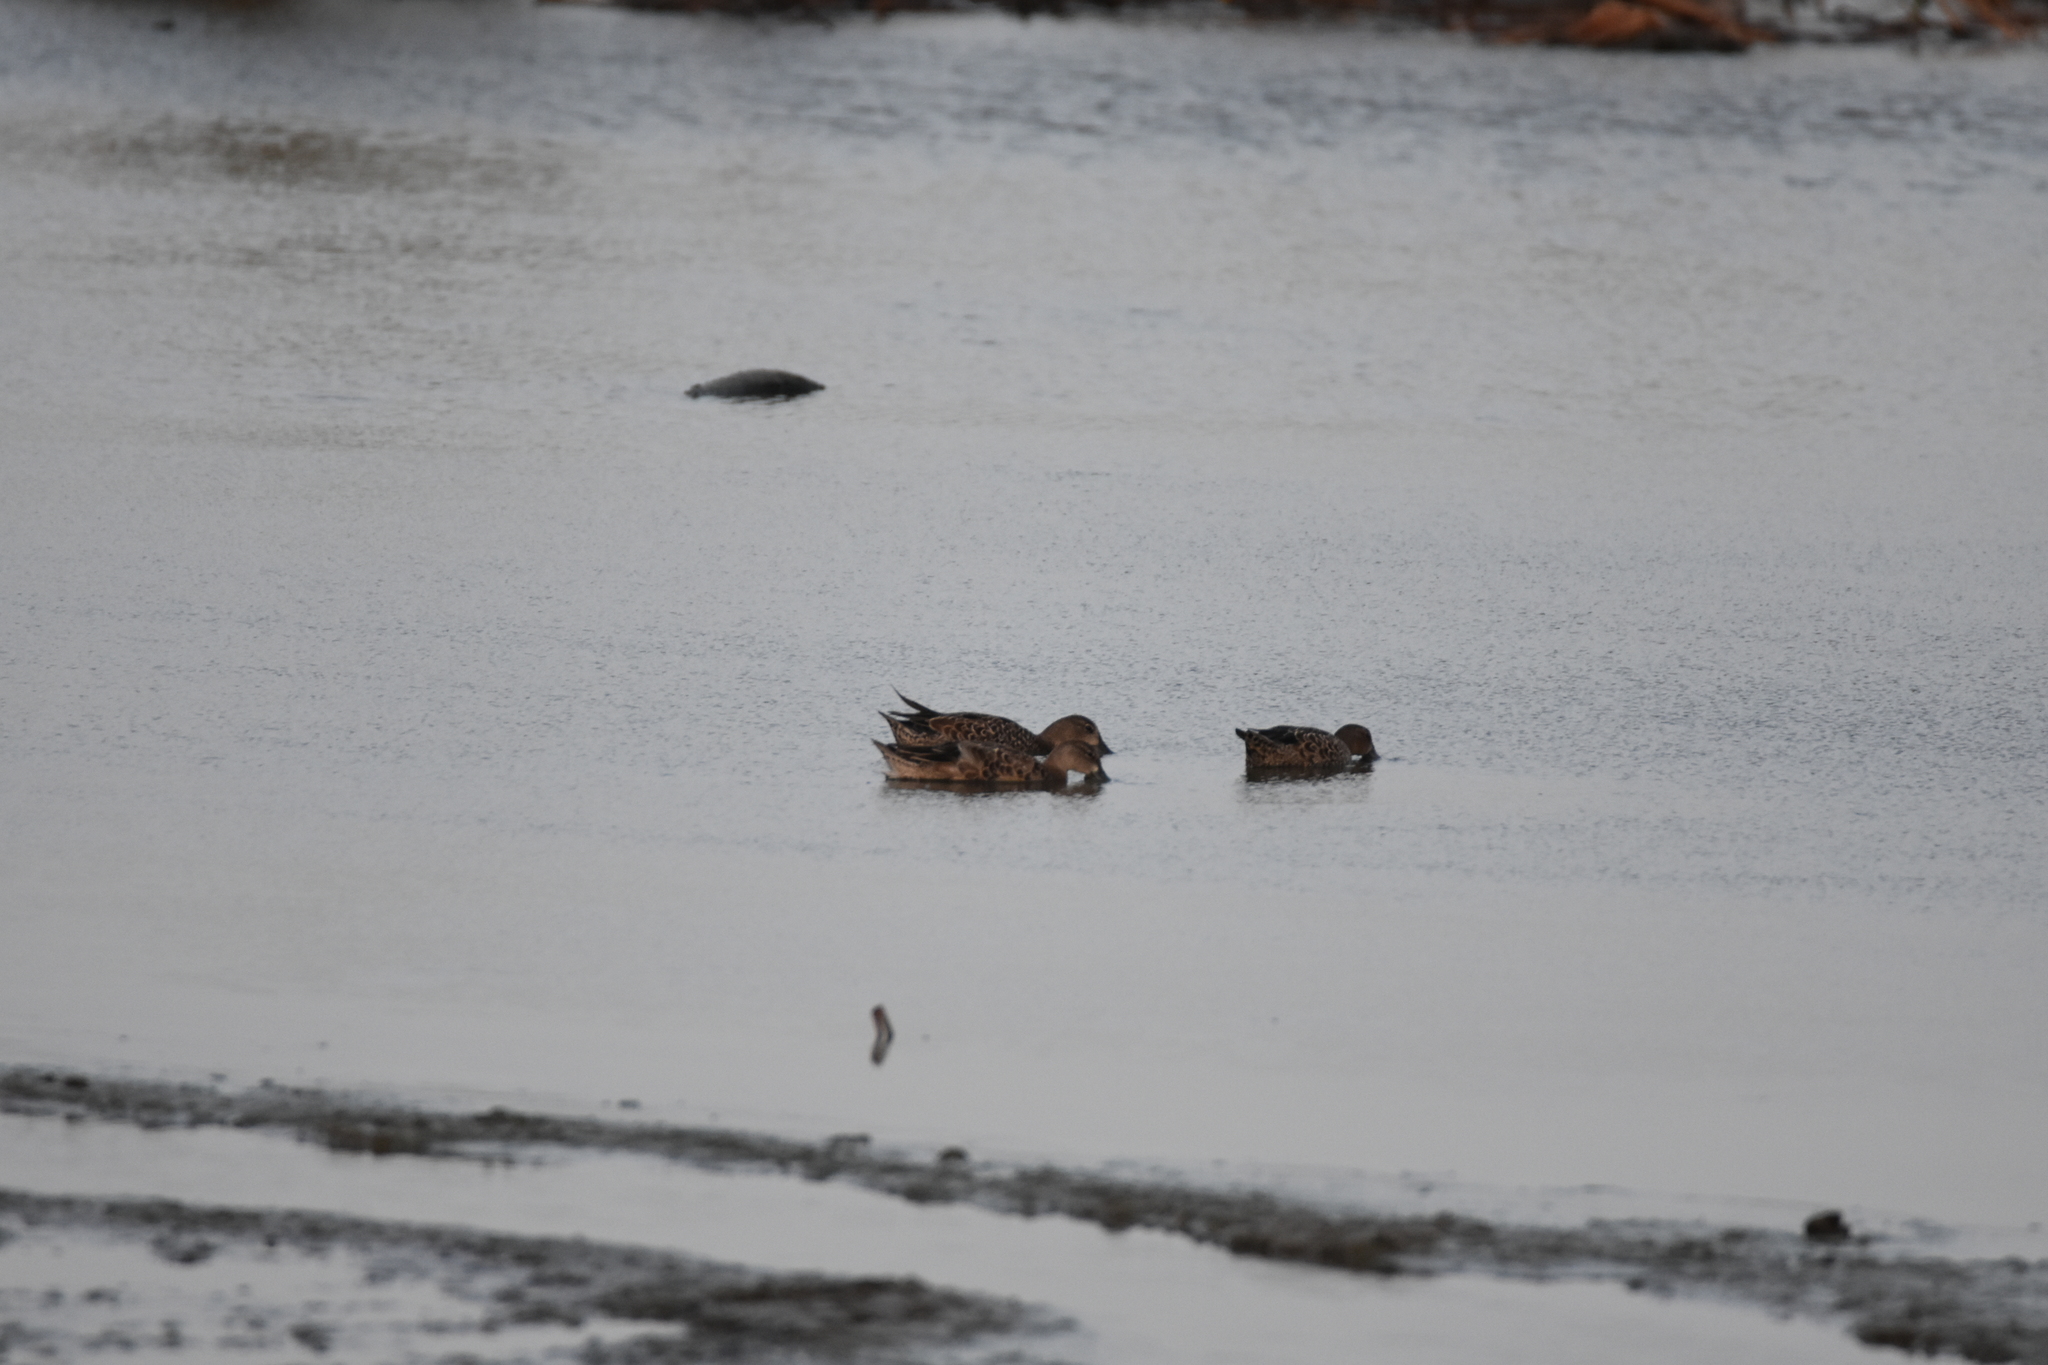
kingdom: Animalia
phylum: Chordata
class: Aves
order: Anseriformes
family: Anatidae
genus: Spatula
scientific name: Spatula discors
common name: Blue-winged teal
